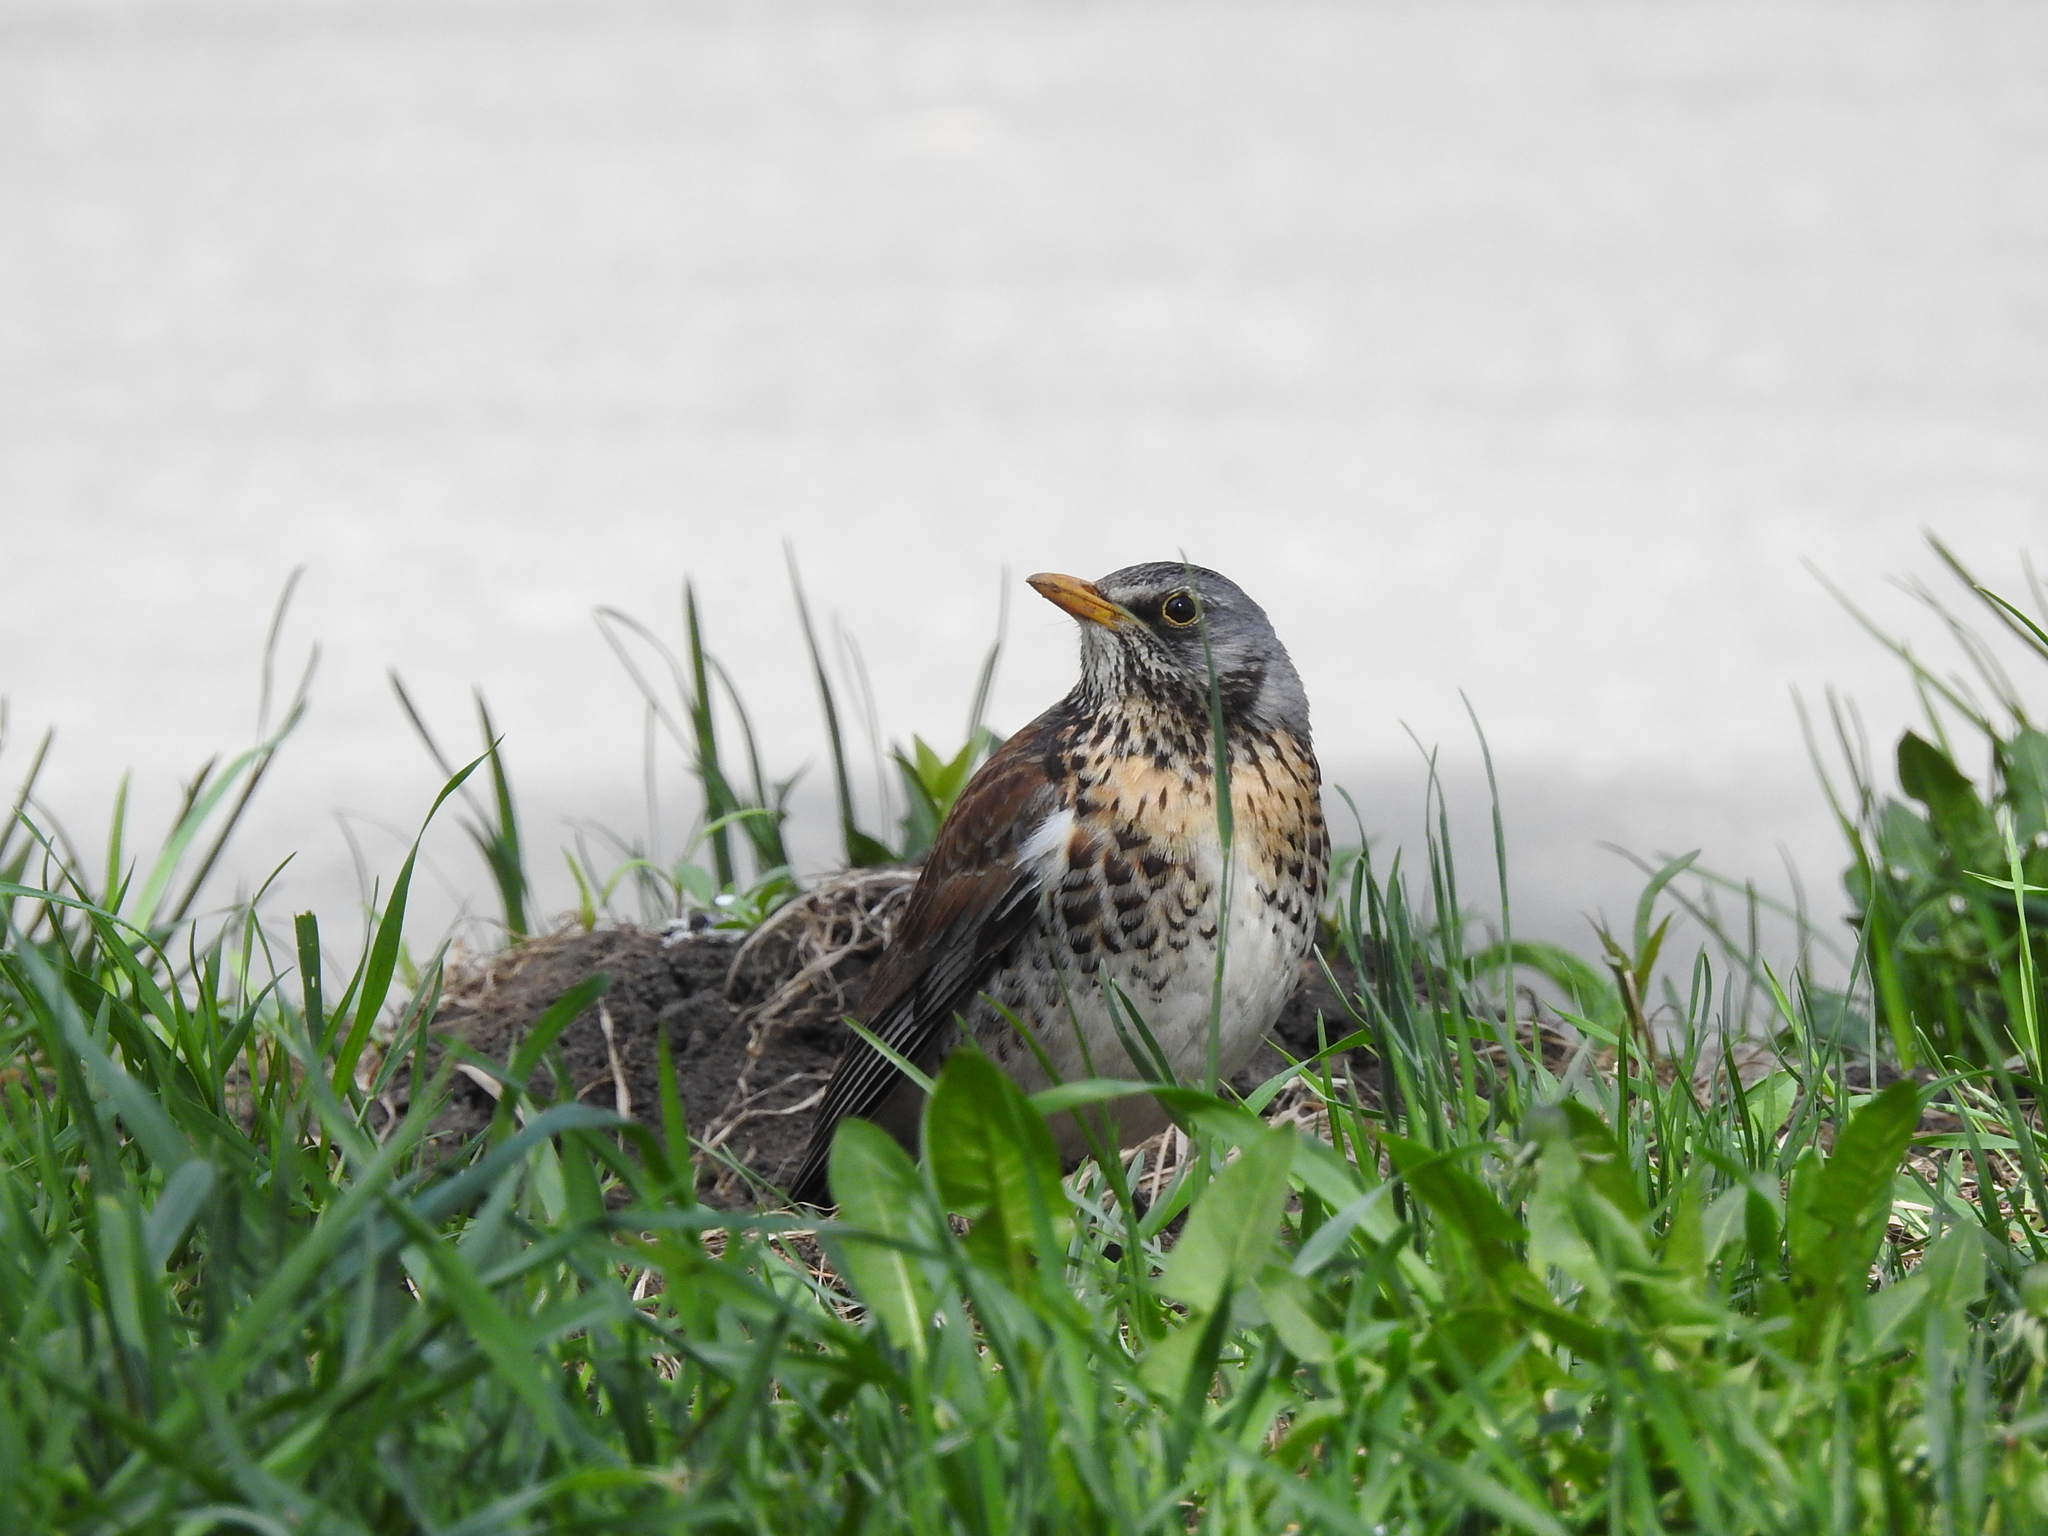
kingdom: Animalia
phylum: Chordata
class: Aves
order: Passeriformes
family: Turdidae
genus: Turdus
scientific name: Turdus pilaris
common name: Fieldfare
